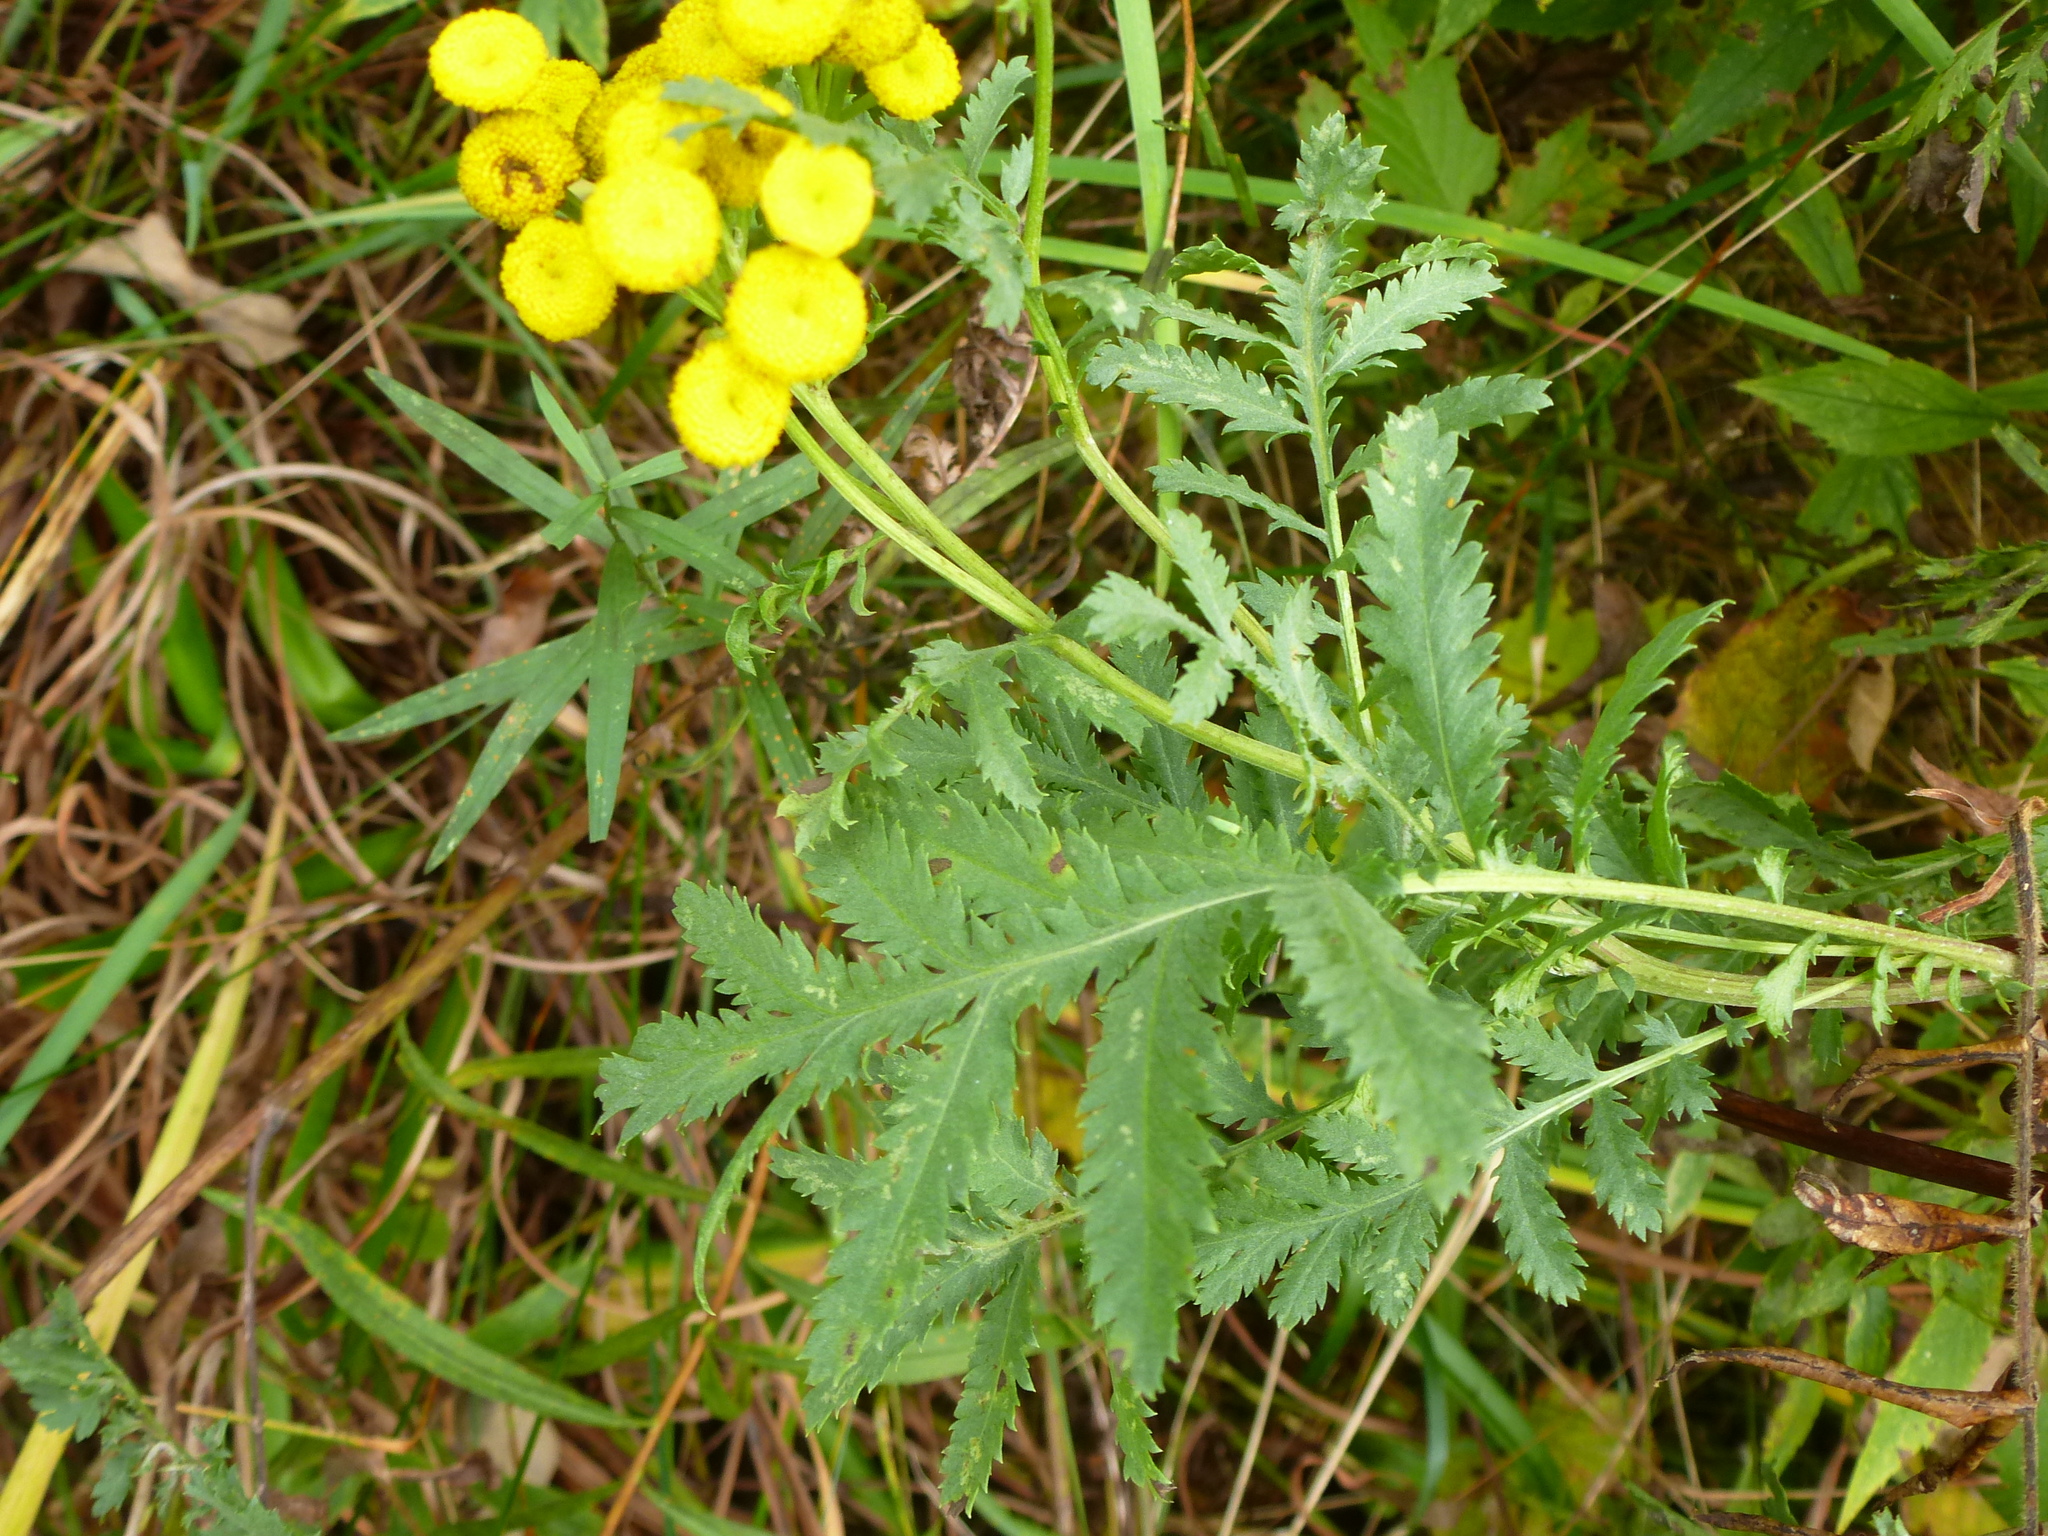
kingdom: Plantae
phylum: Tracheophyta
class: Magnoliopsida
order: Asterales
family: Asteraceae
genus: Tanacetum
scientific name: Tanacetum vulgare
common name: Common tansy
